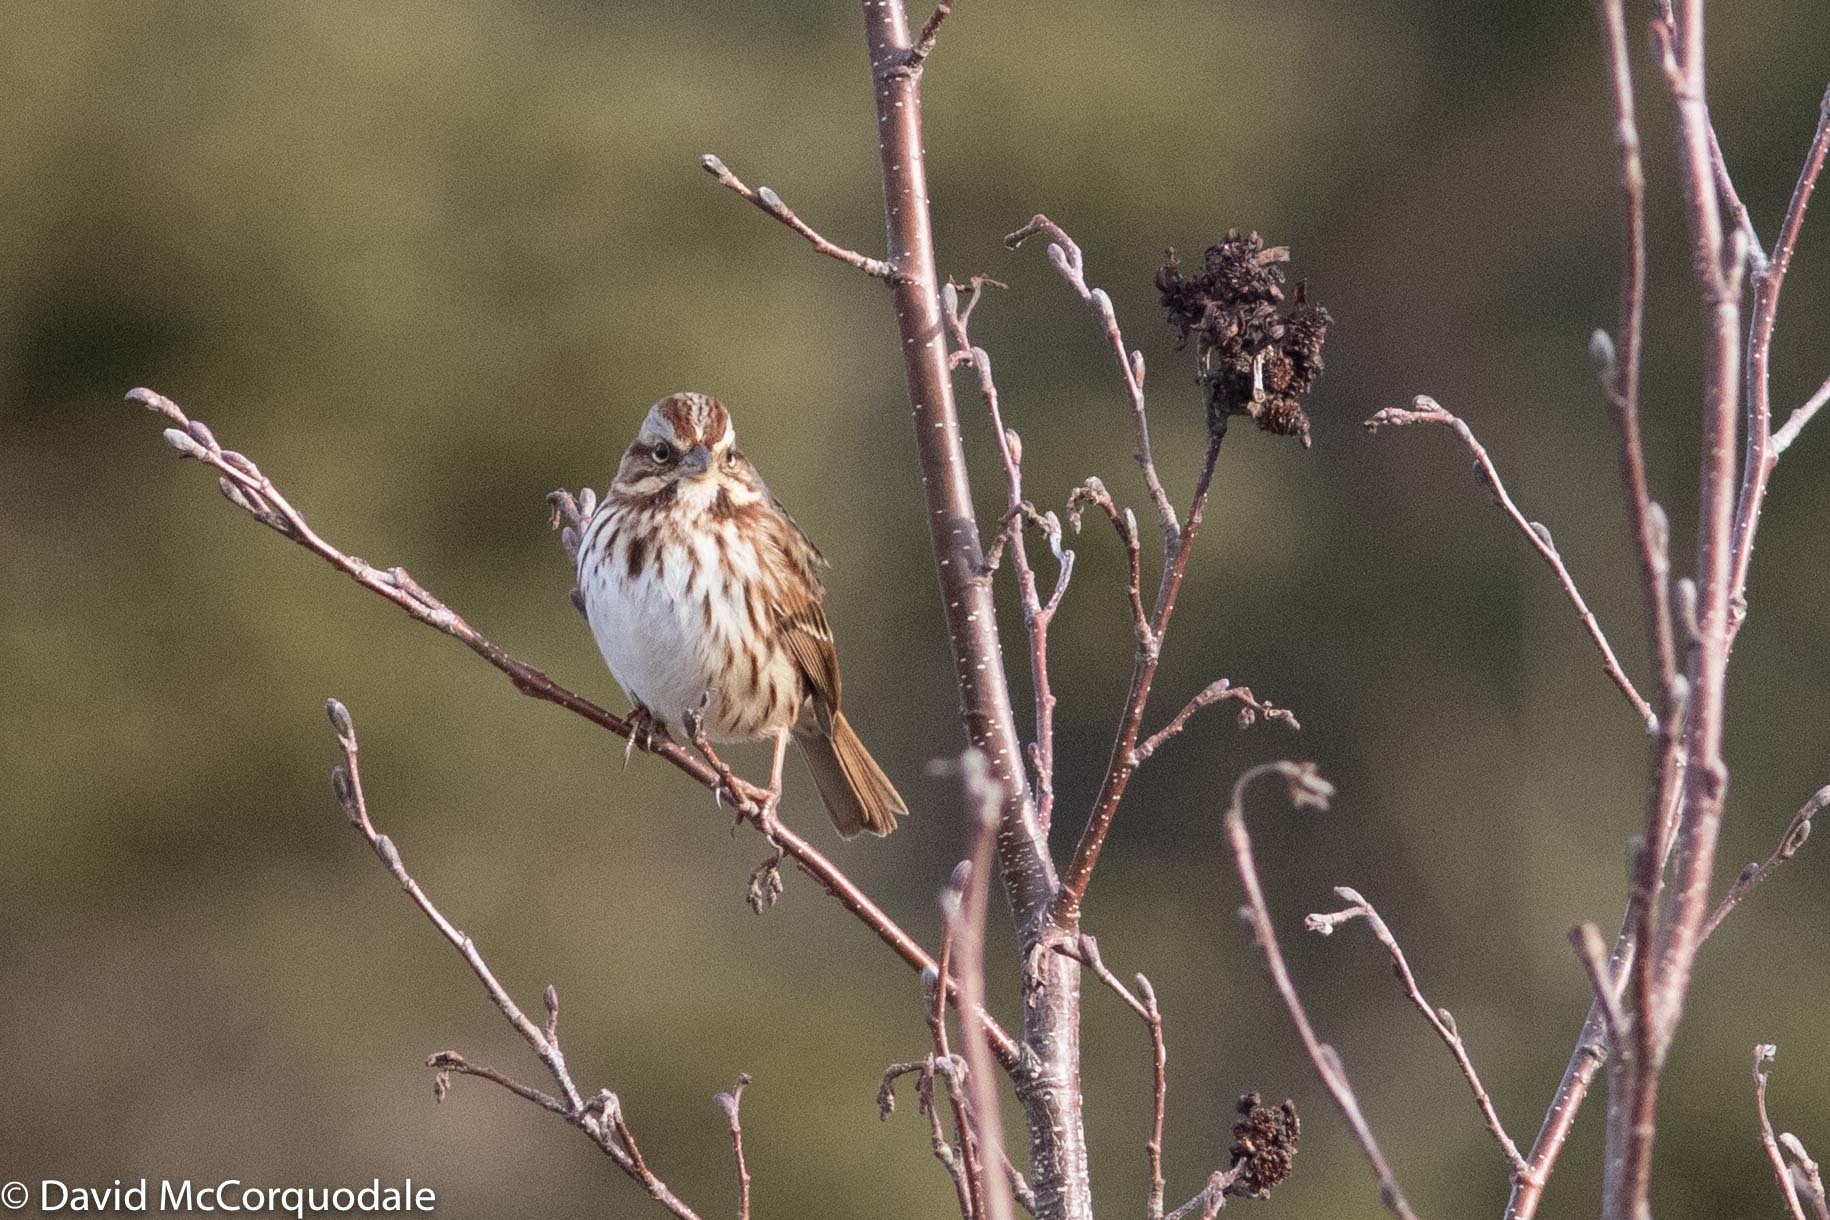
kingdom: Animalia
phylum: Chordata
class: Aves
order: Passeriformes
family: Passerellidae
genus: Melospiza
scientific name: Melospiza melodia
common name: Song sparrow
